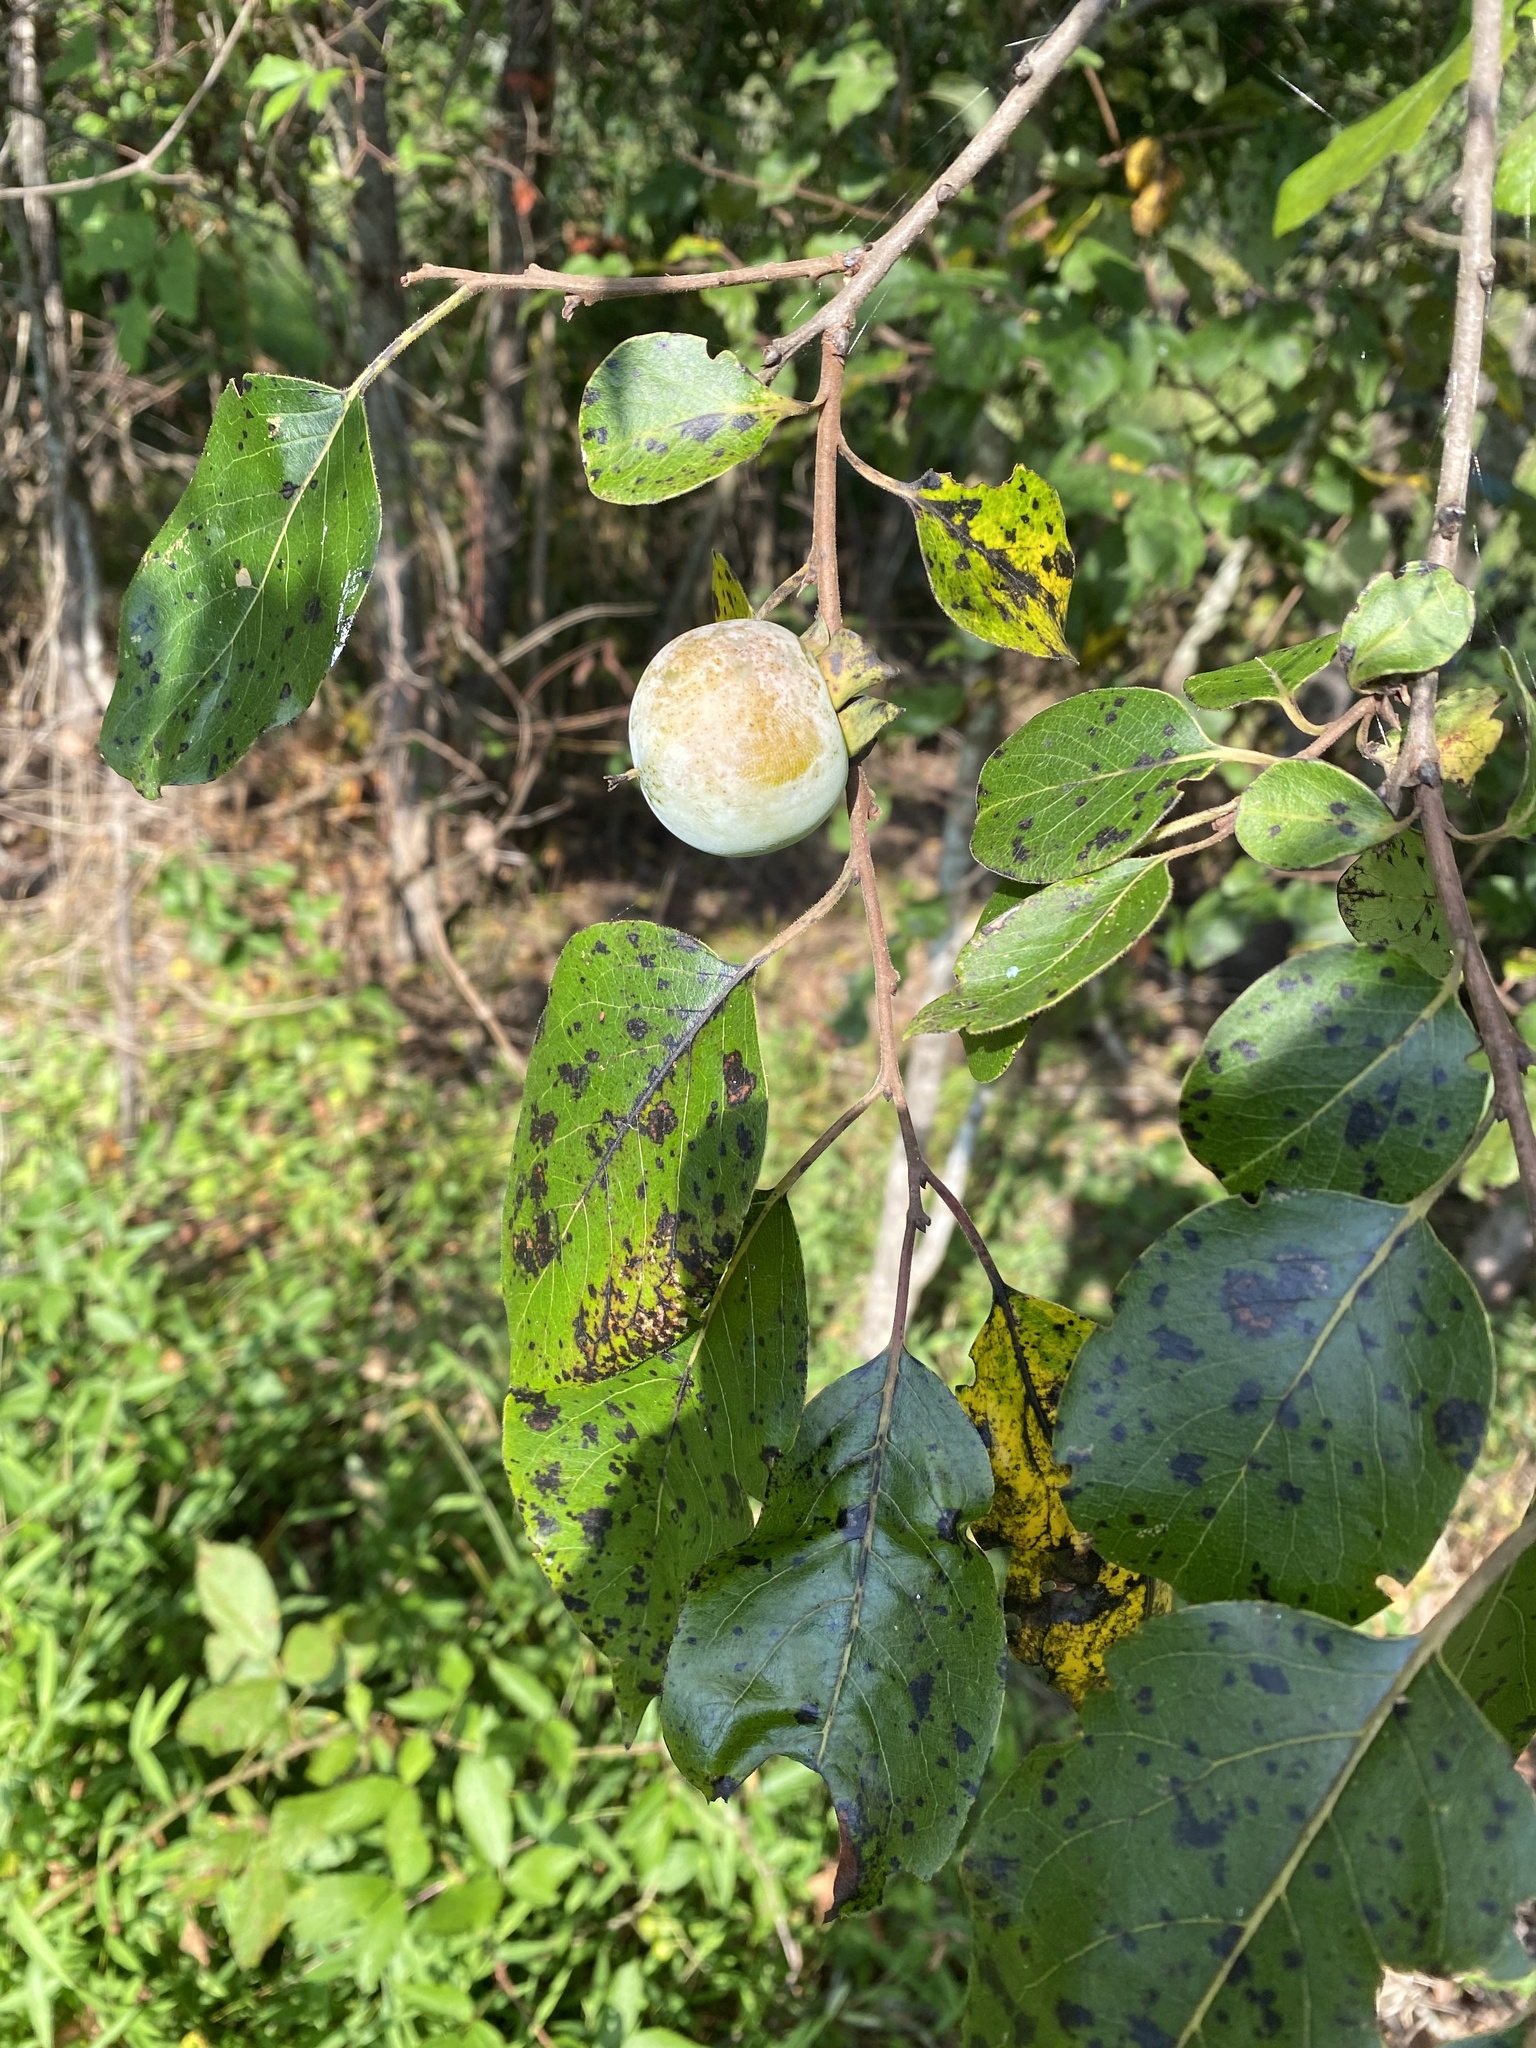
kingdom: Plantae
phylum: Tracheophyta
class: Magnoliopsida
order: Ericales
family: Ebenaceae
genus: Diospyros
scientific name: Diospyros virginiana
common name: Persimmon
